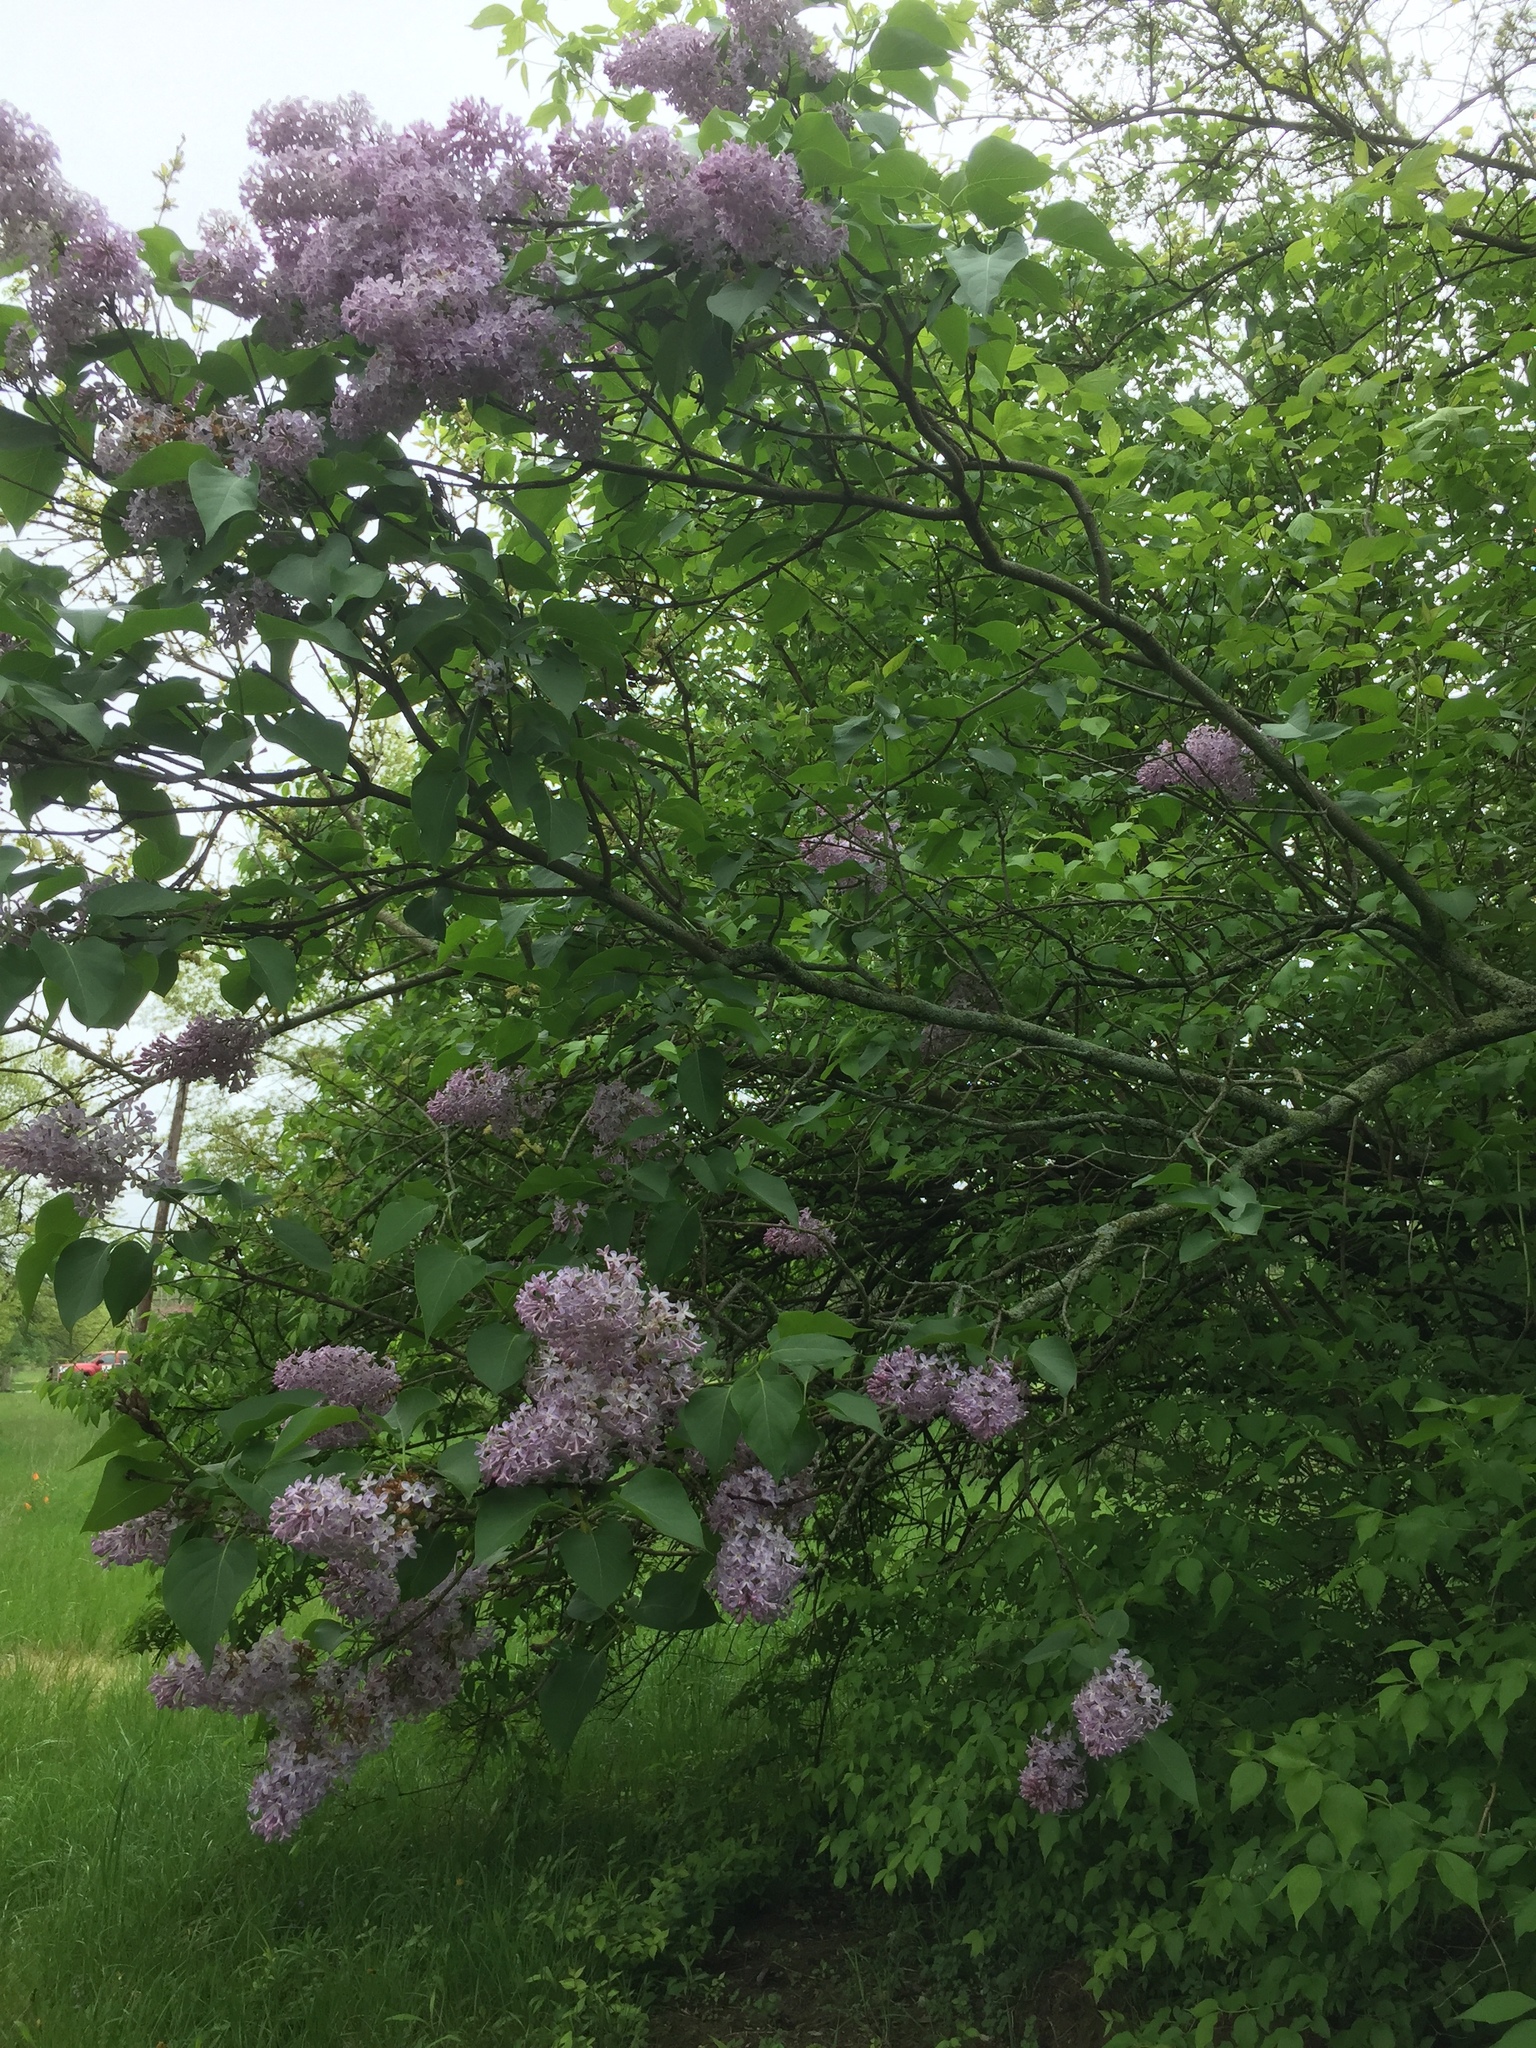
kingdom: Plantae
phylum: Tracheophyta
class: Magnoliopsida
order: Lamiales
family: Oleaceae
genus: Syringa
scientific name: Syringa vulgaris
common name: Common lilac
